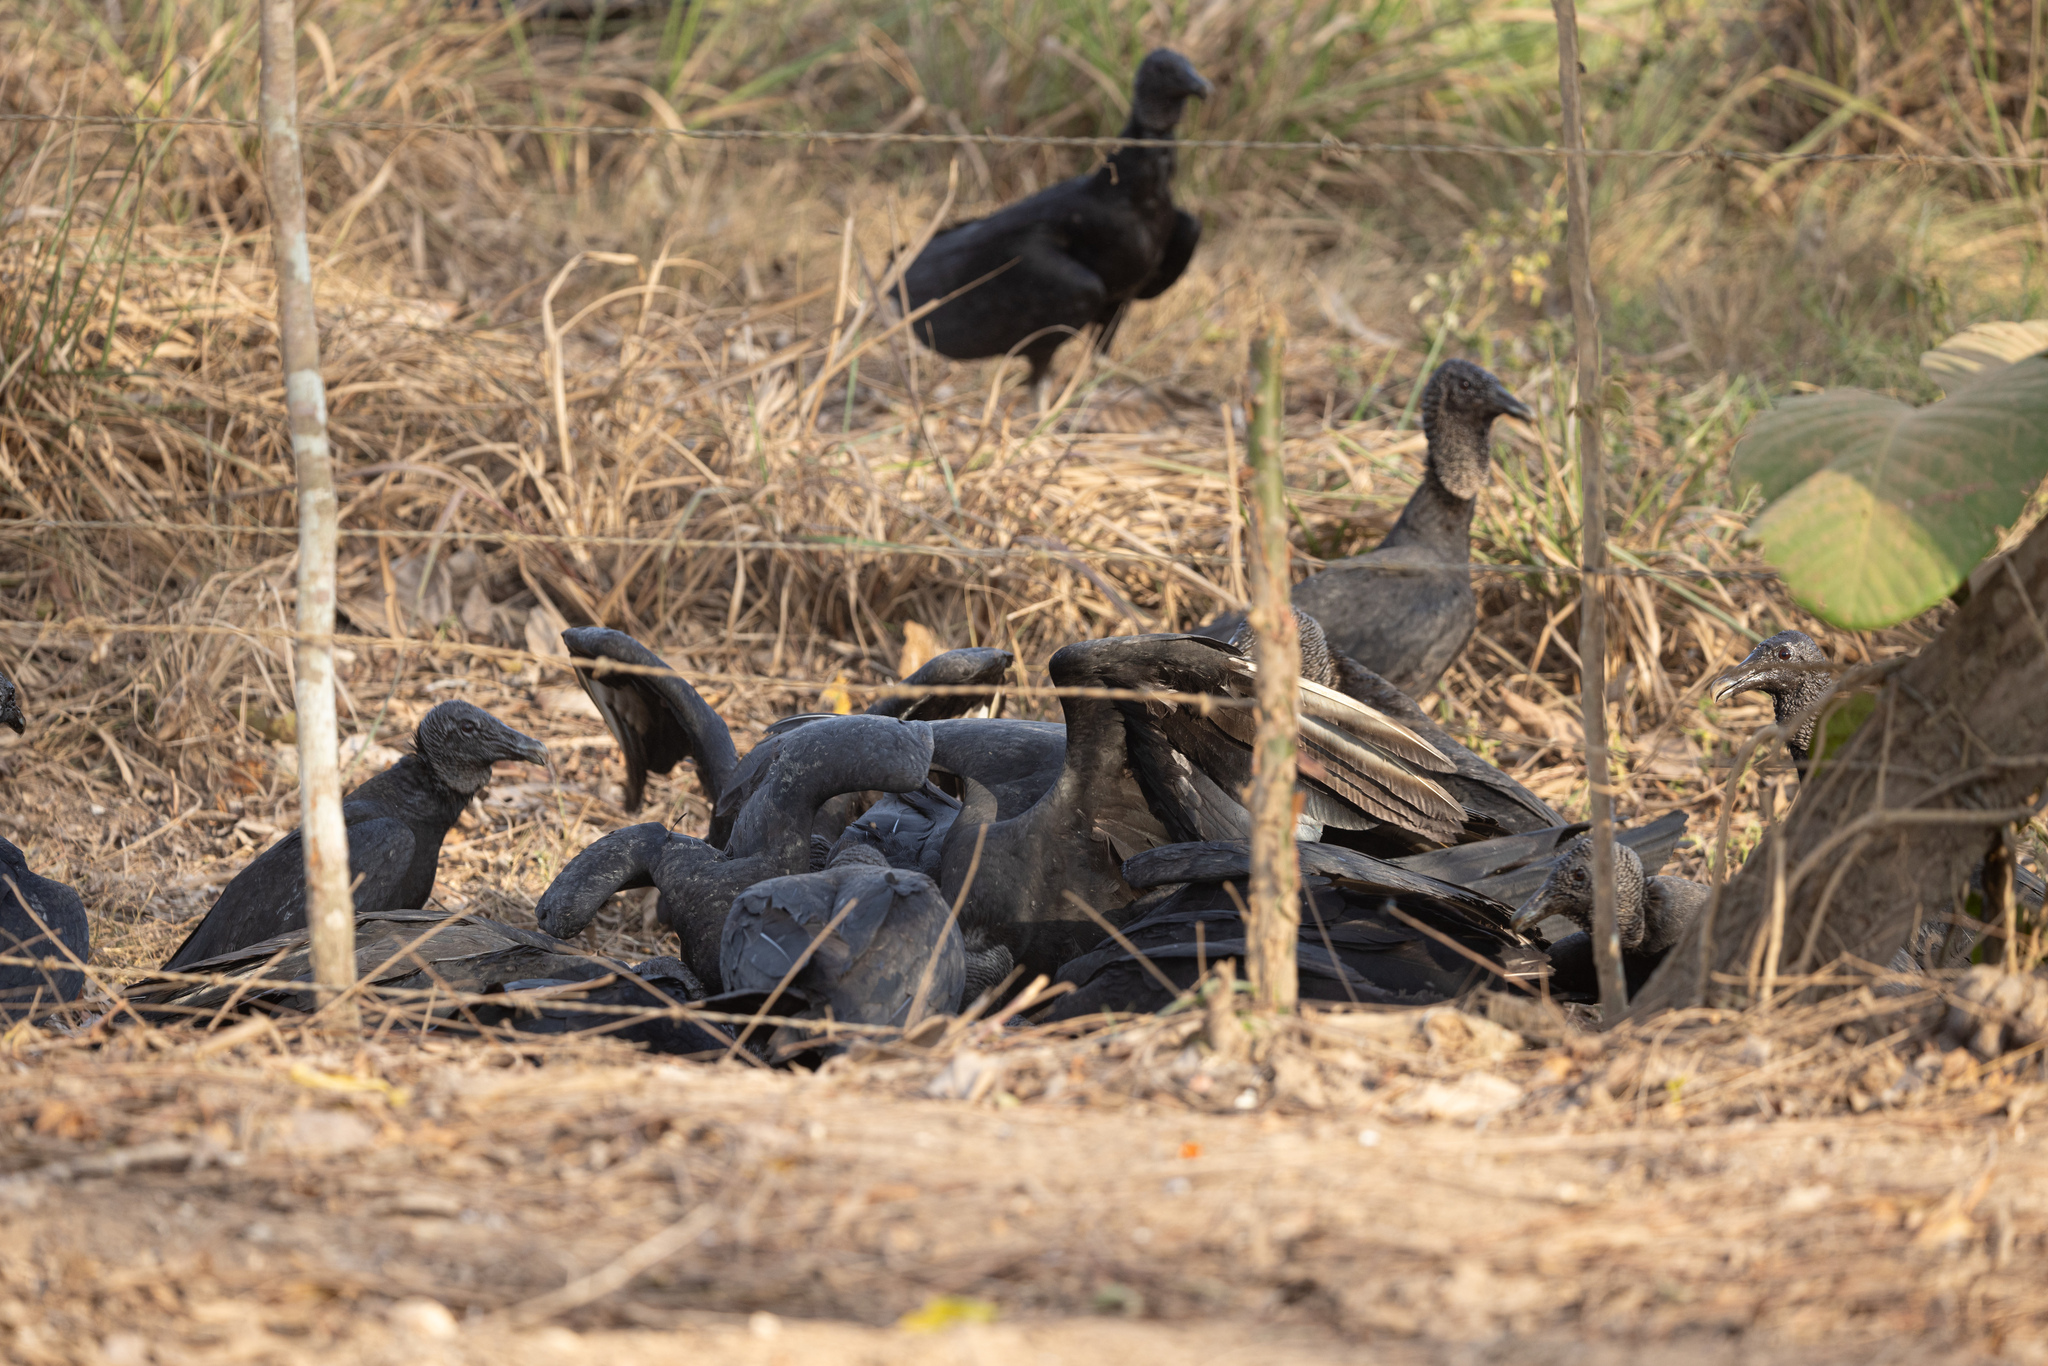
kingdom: Animalia
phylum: Chordata
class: Aves
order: Accipitriformes
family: Cathartidae
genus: Coragyps
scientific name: Coragyps atratus
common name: Black vulture
